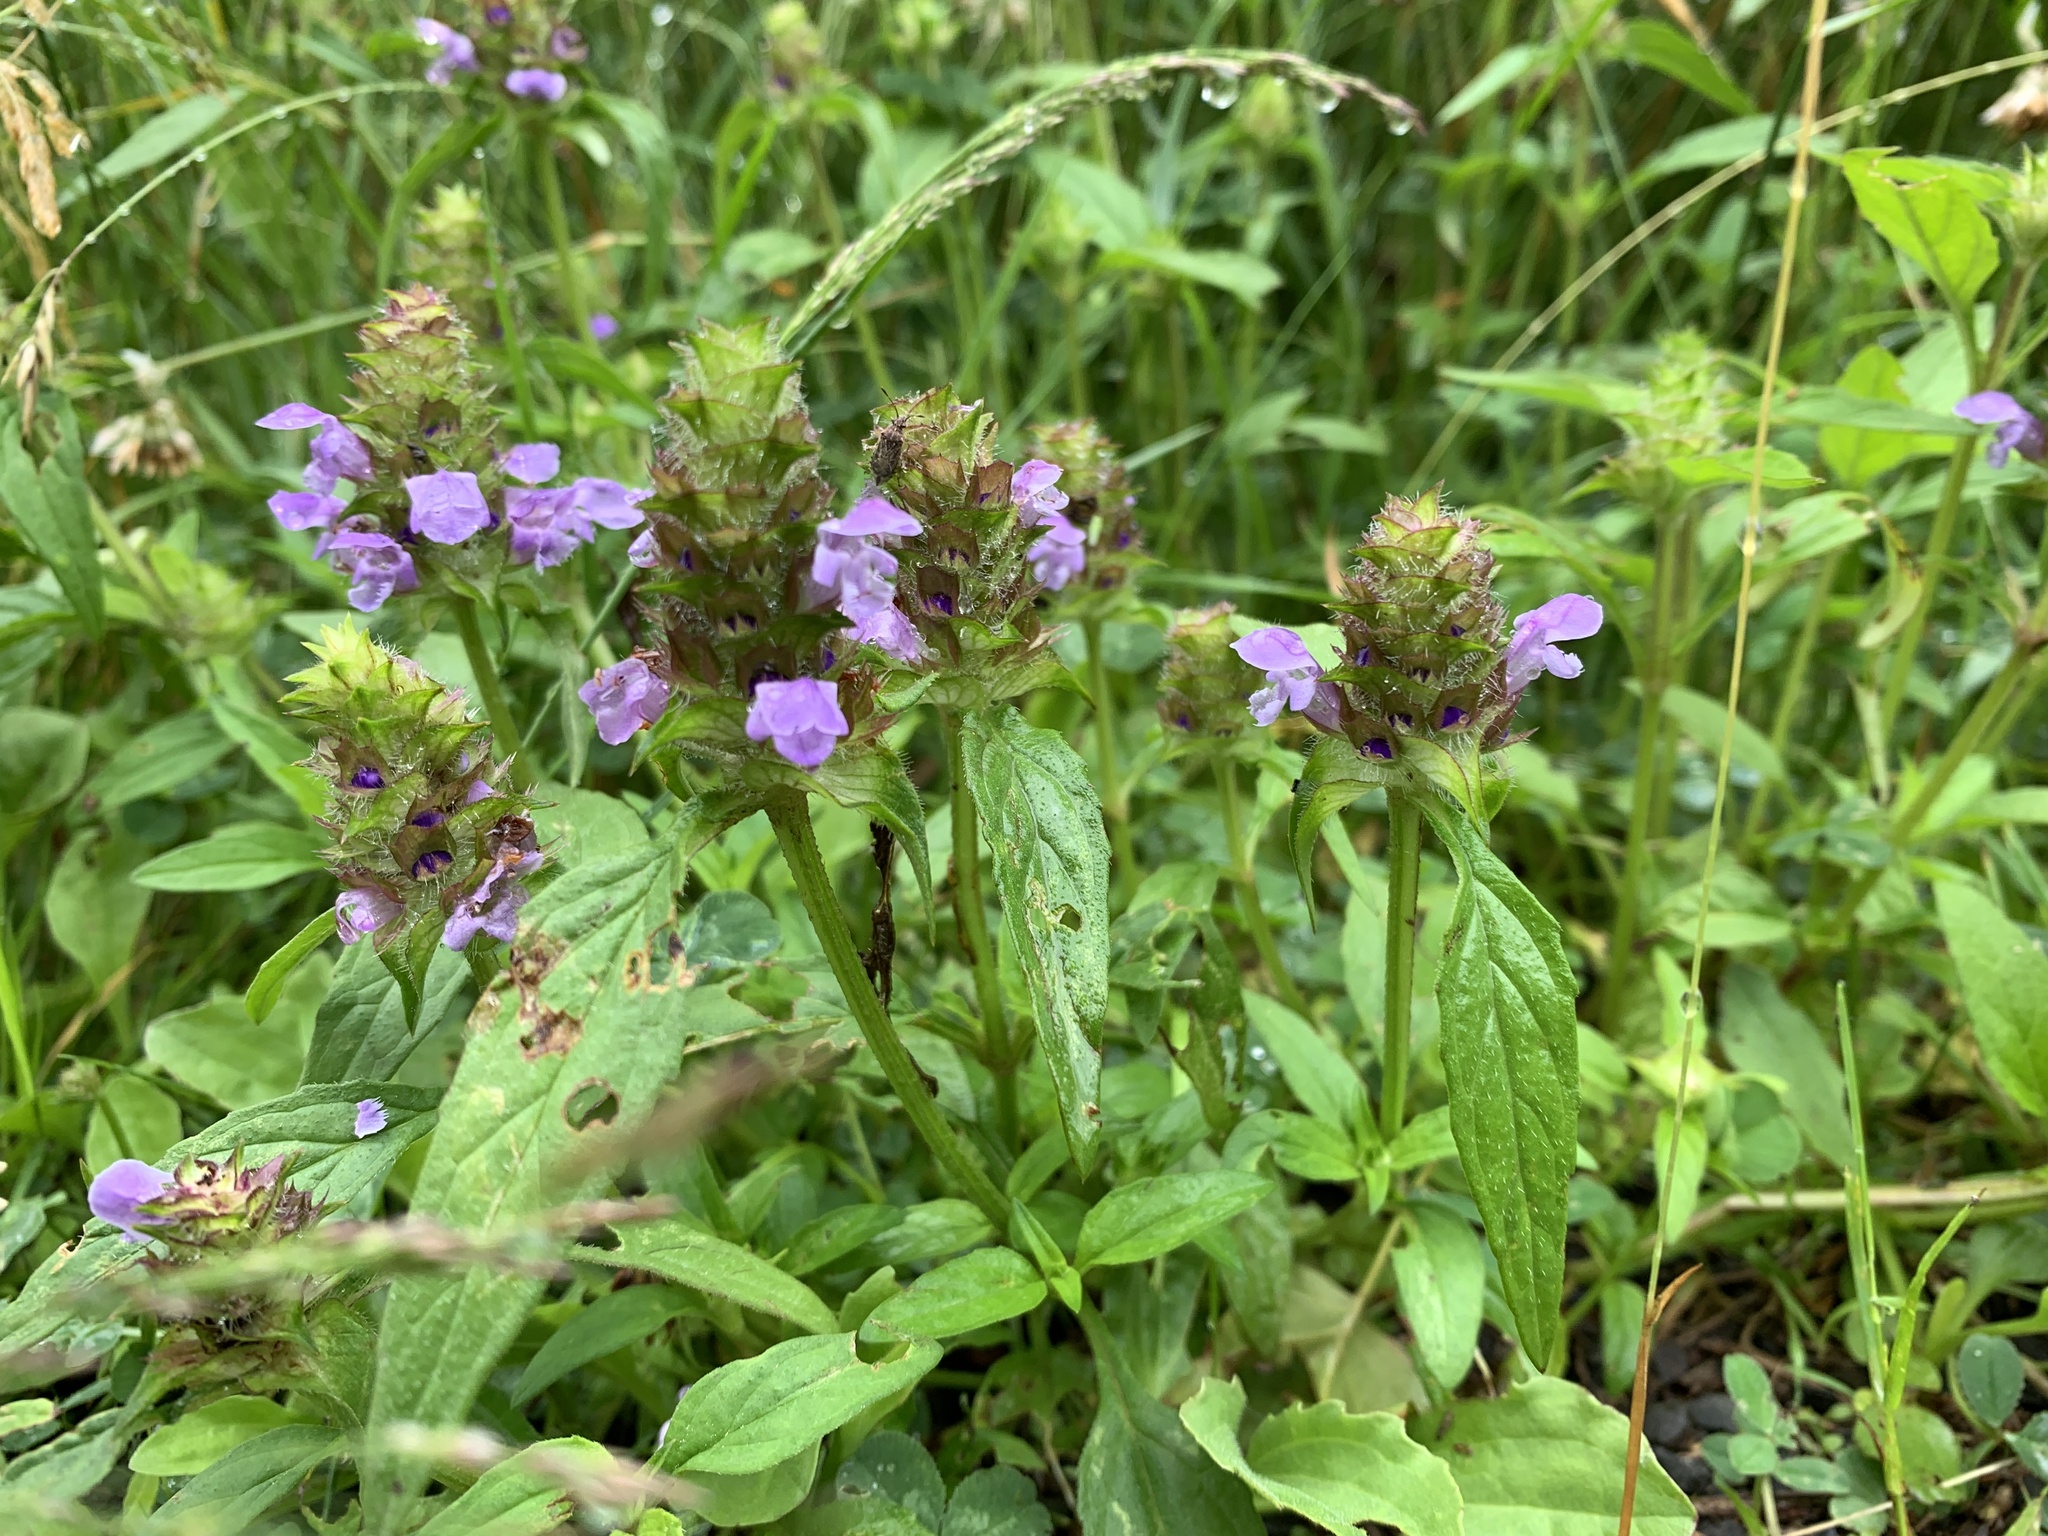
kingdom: Plantae
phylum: Tracheophyta
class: Magnoliopsida
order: Lamiales
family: Lamiaceae
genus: Prunella
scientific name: Prunella vulgaris
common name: Heal-all
